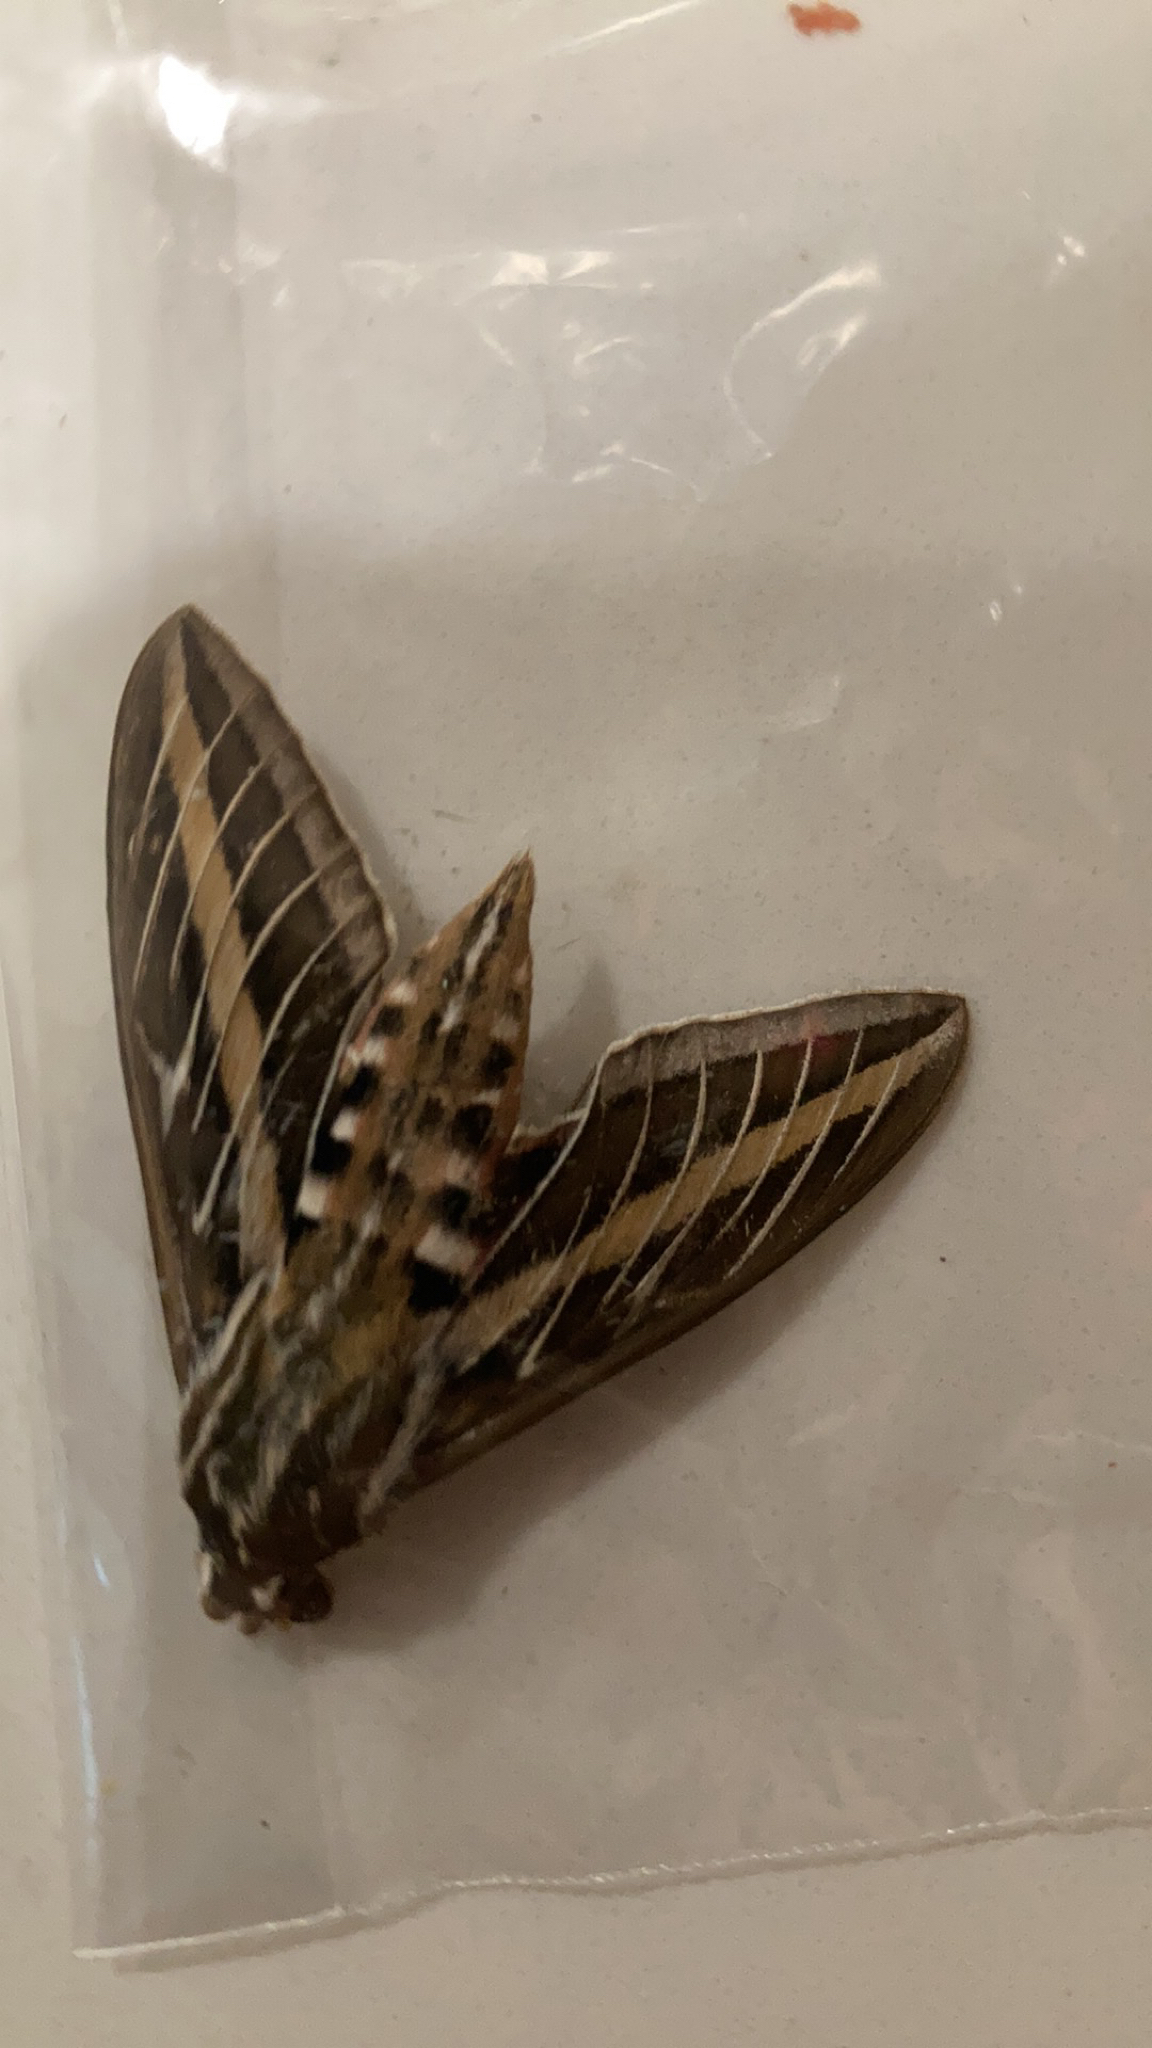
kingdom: Animalia
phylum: Arthropoda
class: Insecta
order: Lepidoptera
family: Sphingidae
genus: Hyles
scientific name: Hyles lineata
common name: White-lined sphinx
